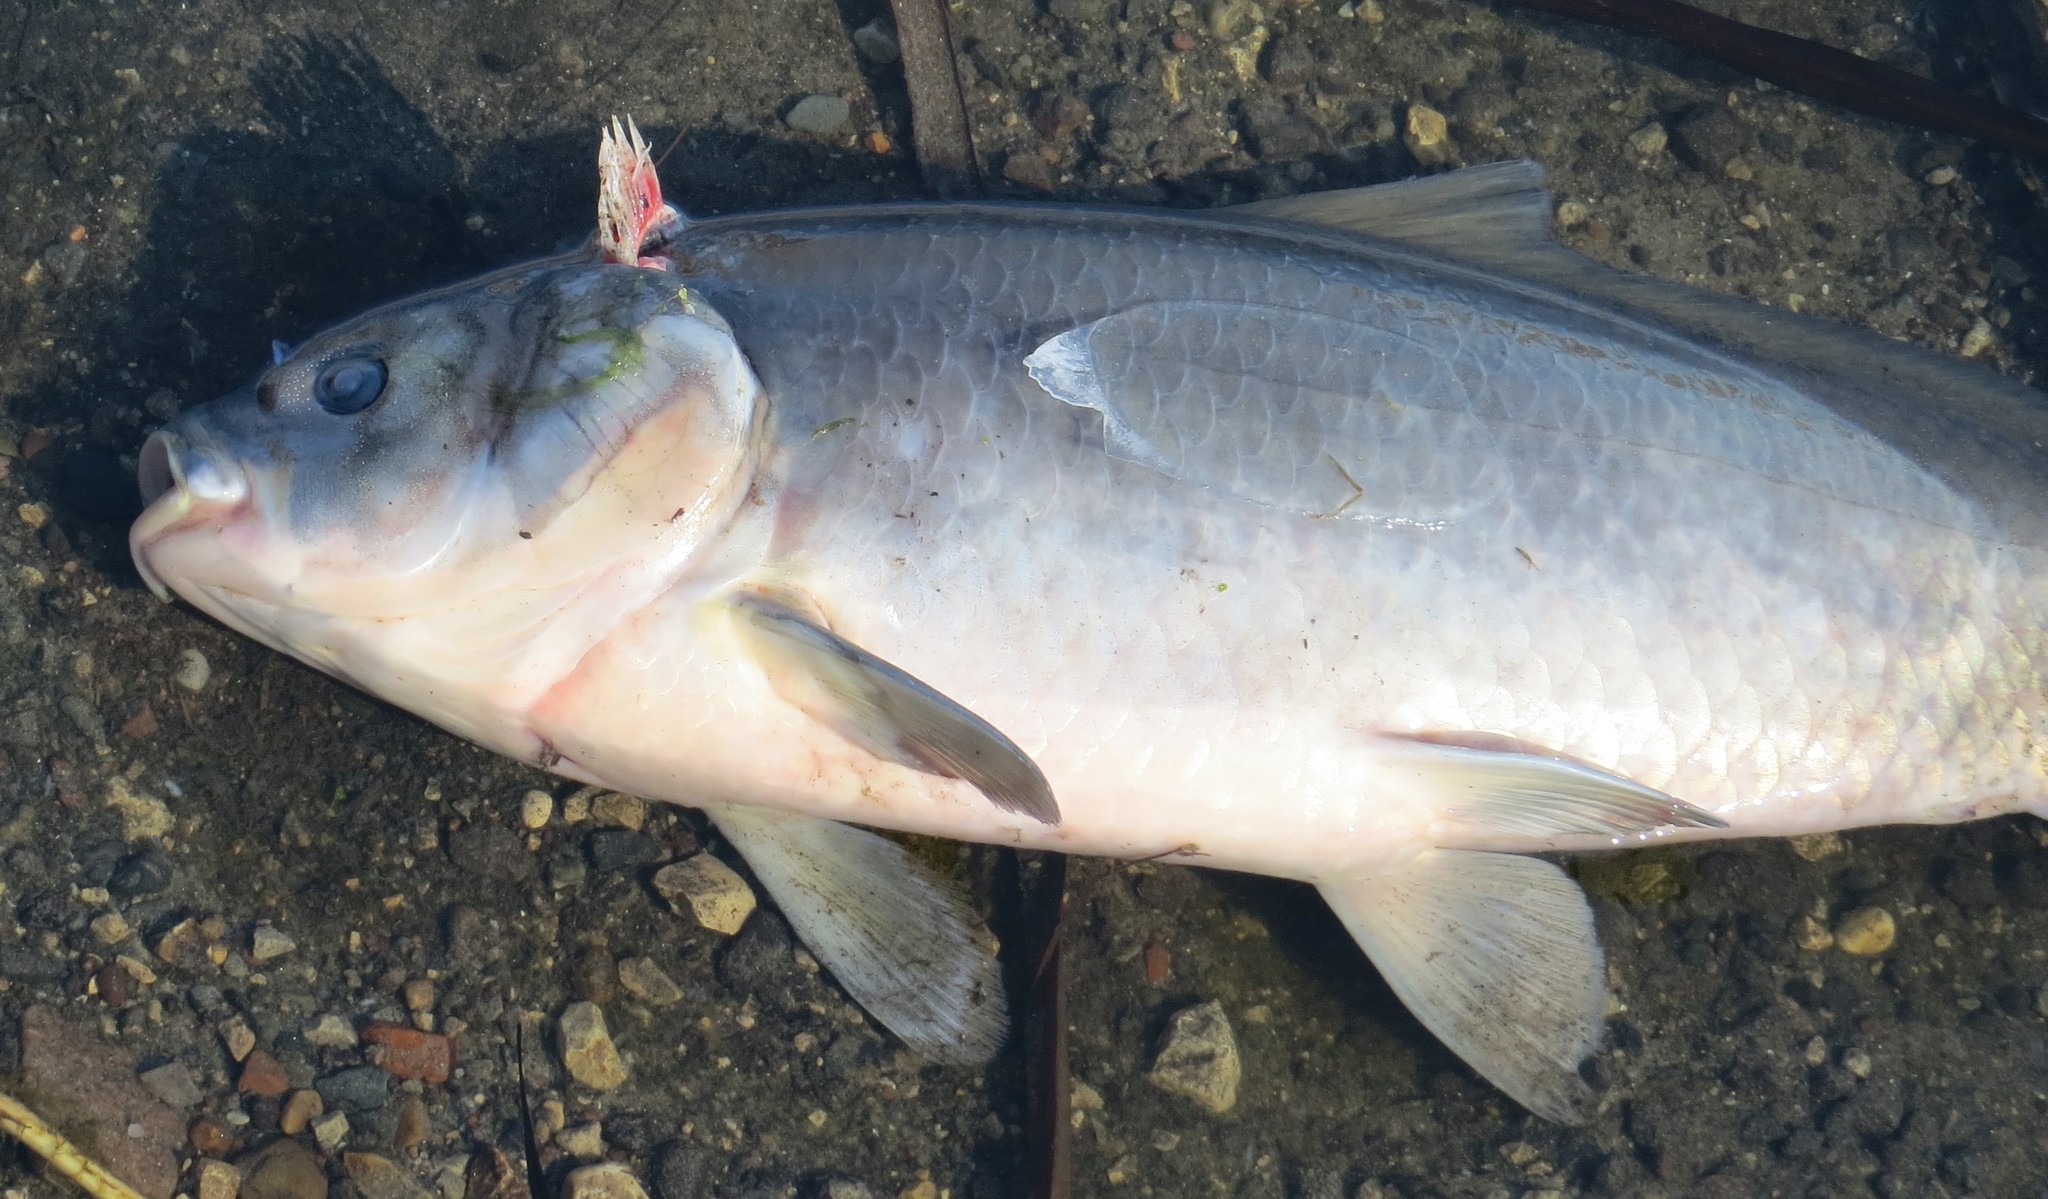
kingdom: Animalia
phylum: Chordata
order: Cypriniformes
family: Catostomidae
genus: Ictiobus
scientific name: Ictiobus cyprinellus
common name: Bigmouth buffalo
